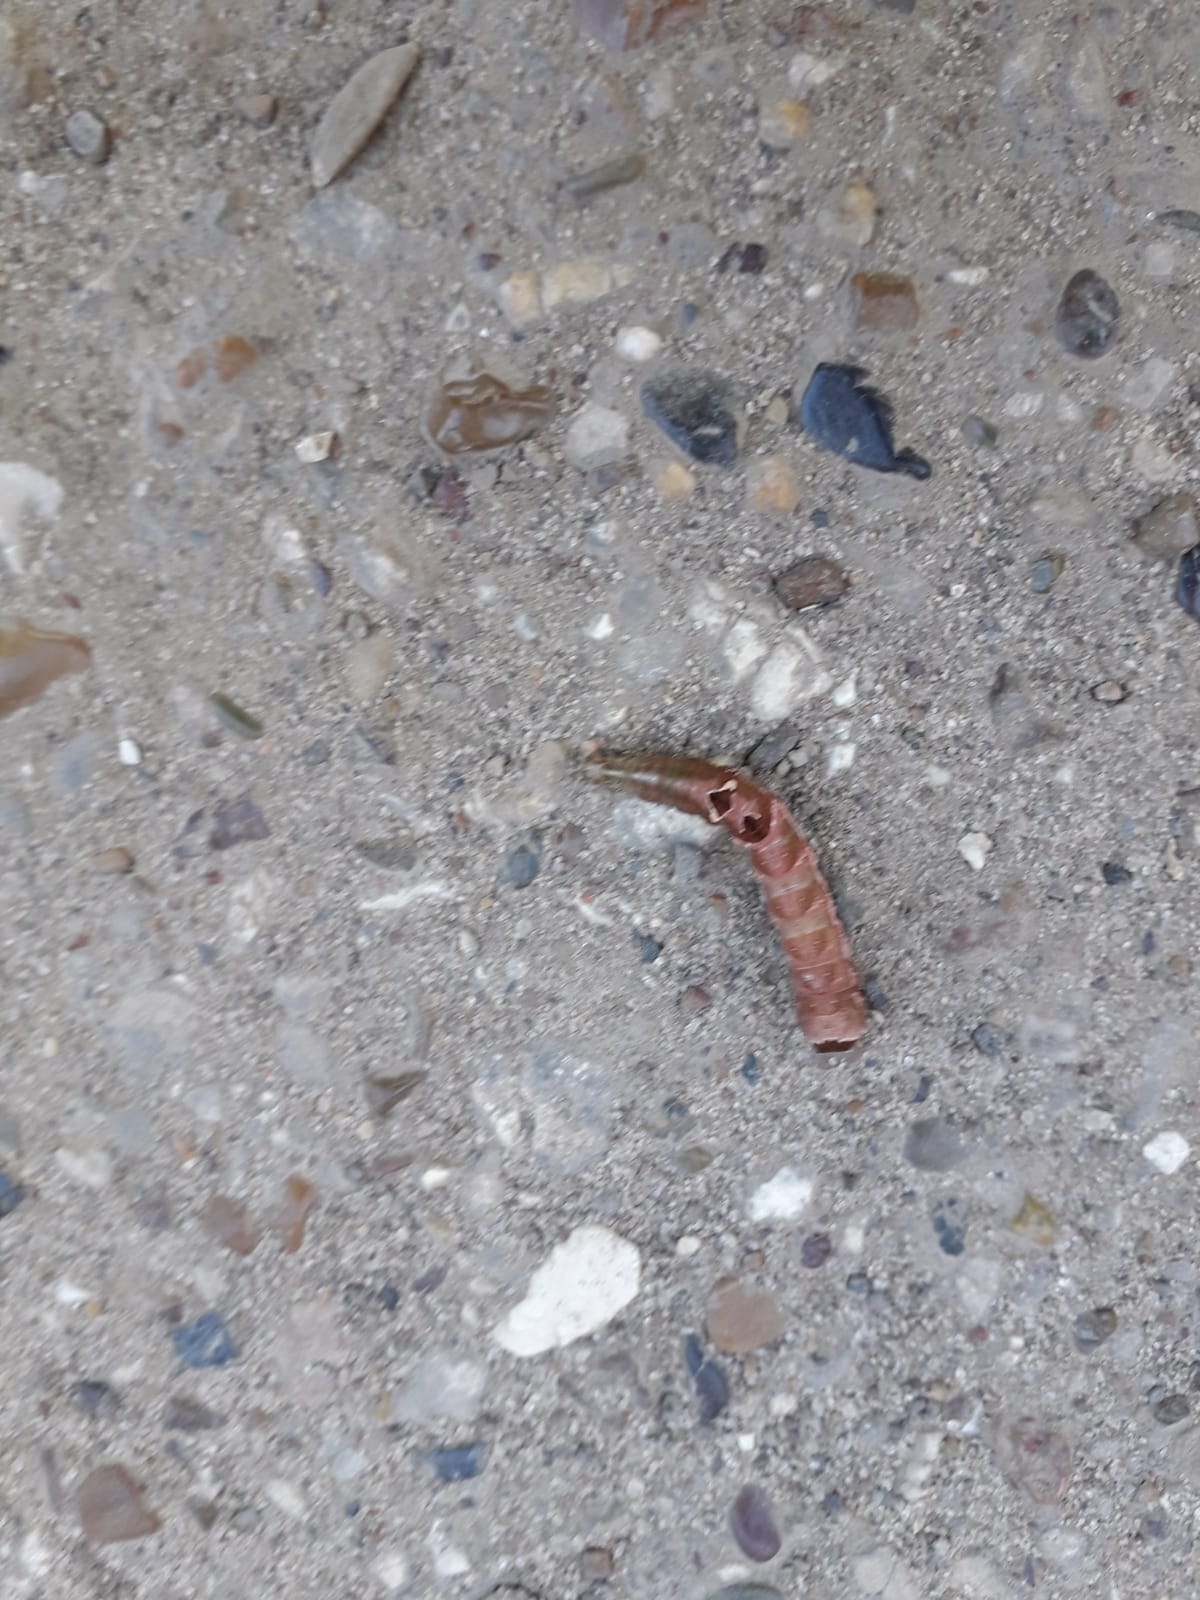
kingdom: Animalia
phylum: Arthropoda
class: Insecta
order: Lepidoptera
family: Noctuidae
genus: Abrostola
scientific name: Abrostola triplasia
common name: Dark spectacle
